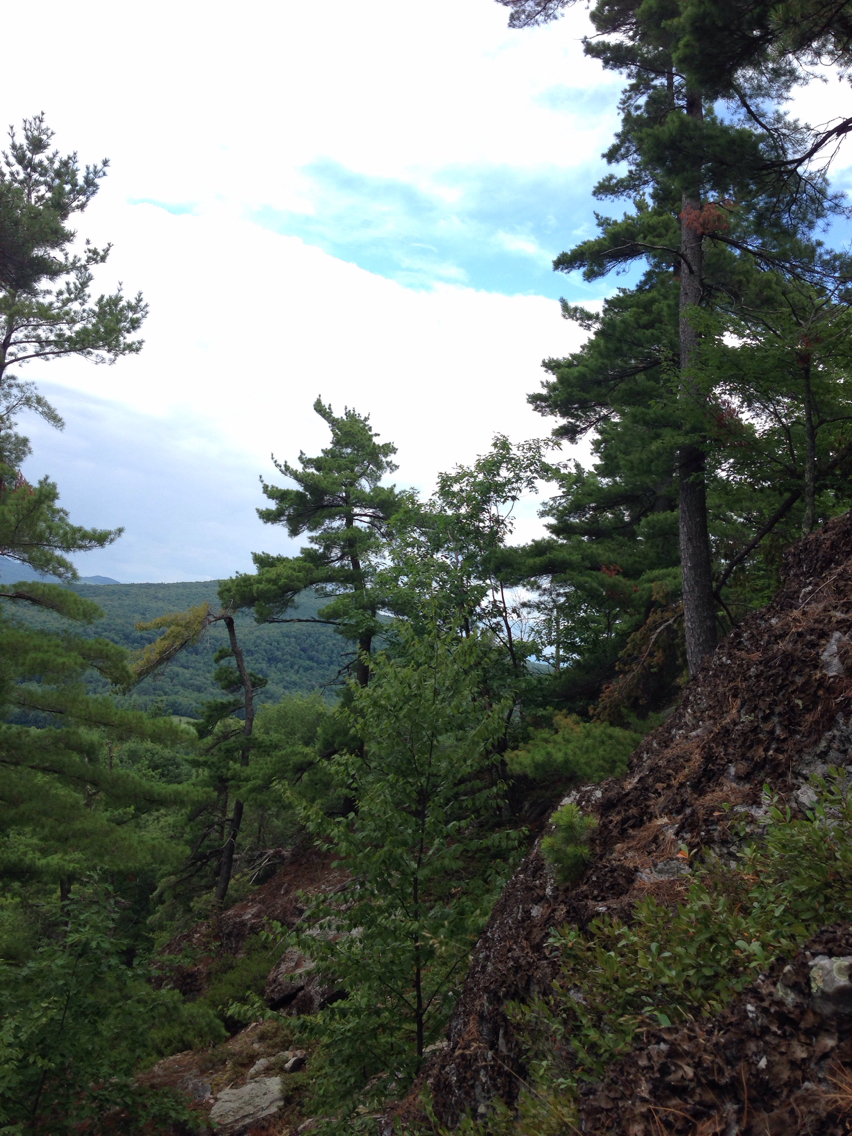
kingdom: Plantae
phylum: Tracheophyta
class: Pinopsida
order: Pinales
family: Pinaceae
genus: Pinus
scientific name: Pinus strobus
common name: Weymouth pine
